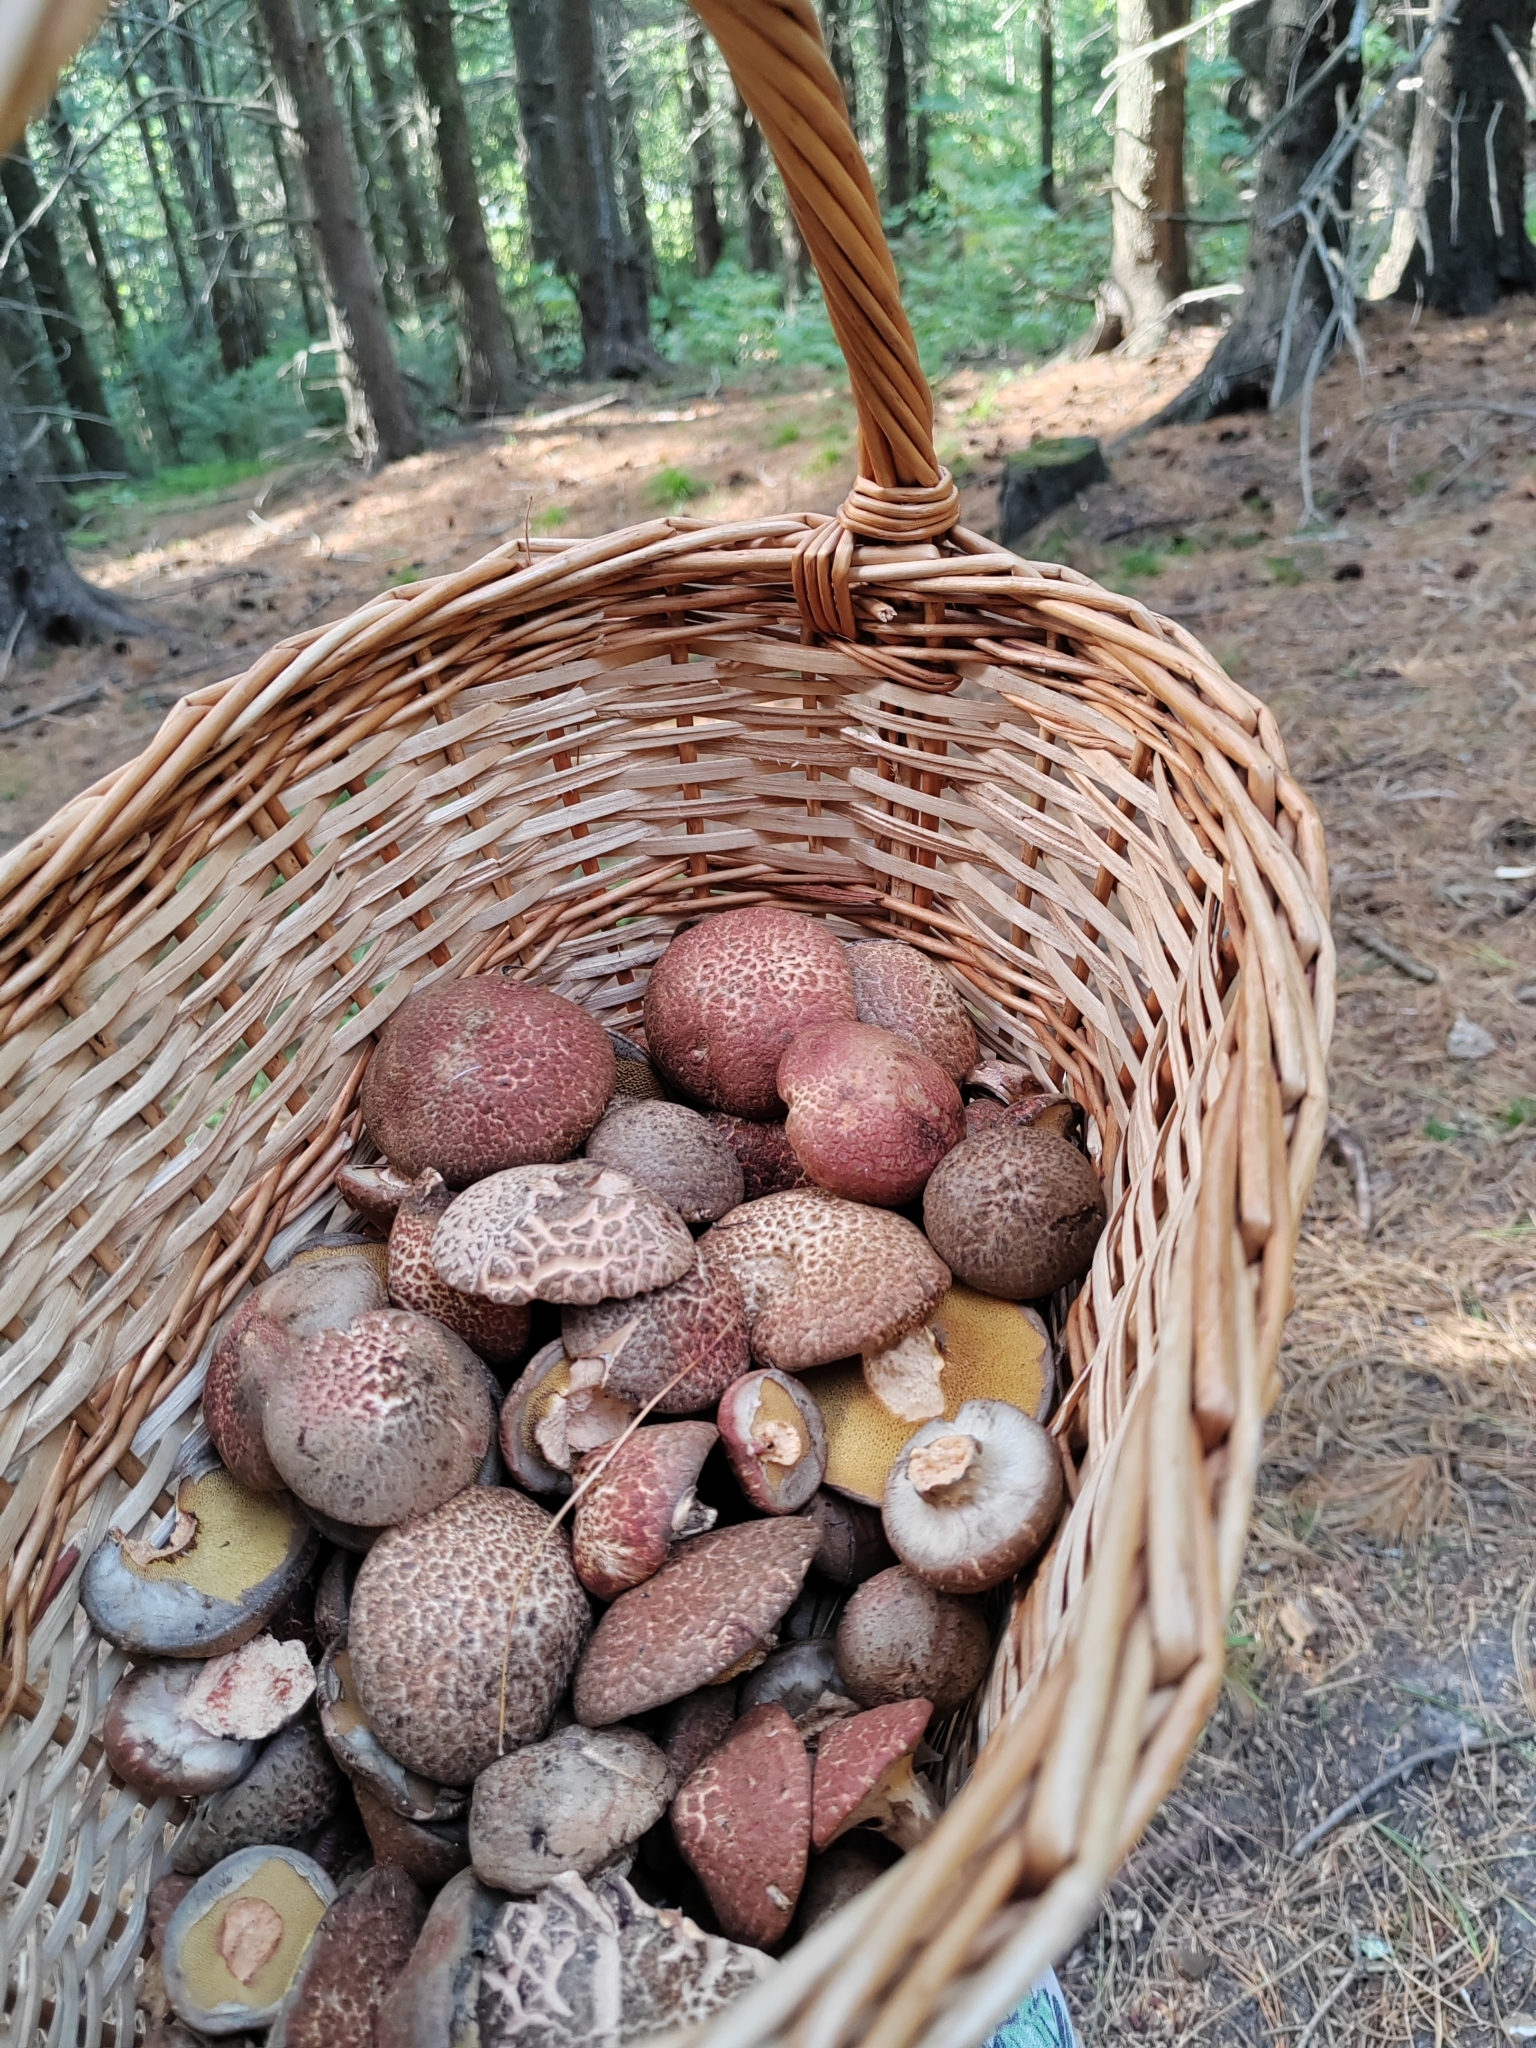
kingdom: Fungi
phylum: Basidiomycota
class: Agaricomycetes
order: Boletales
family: Suillaceae
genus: Suillus
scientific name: Suillus spraguei
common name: Painted suillus
